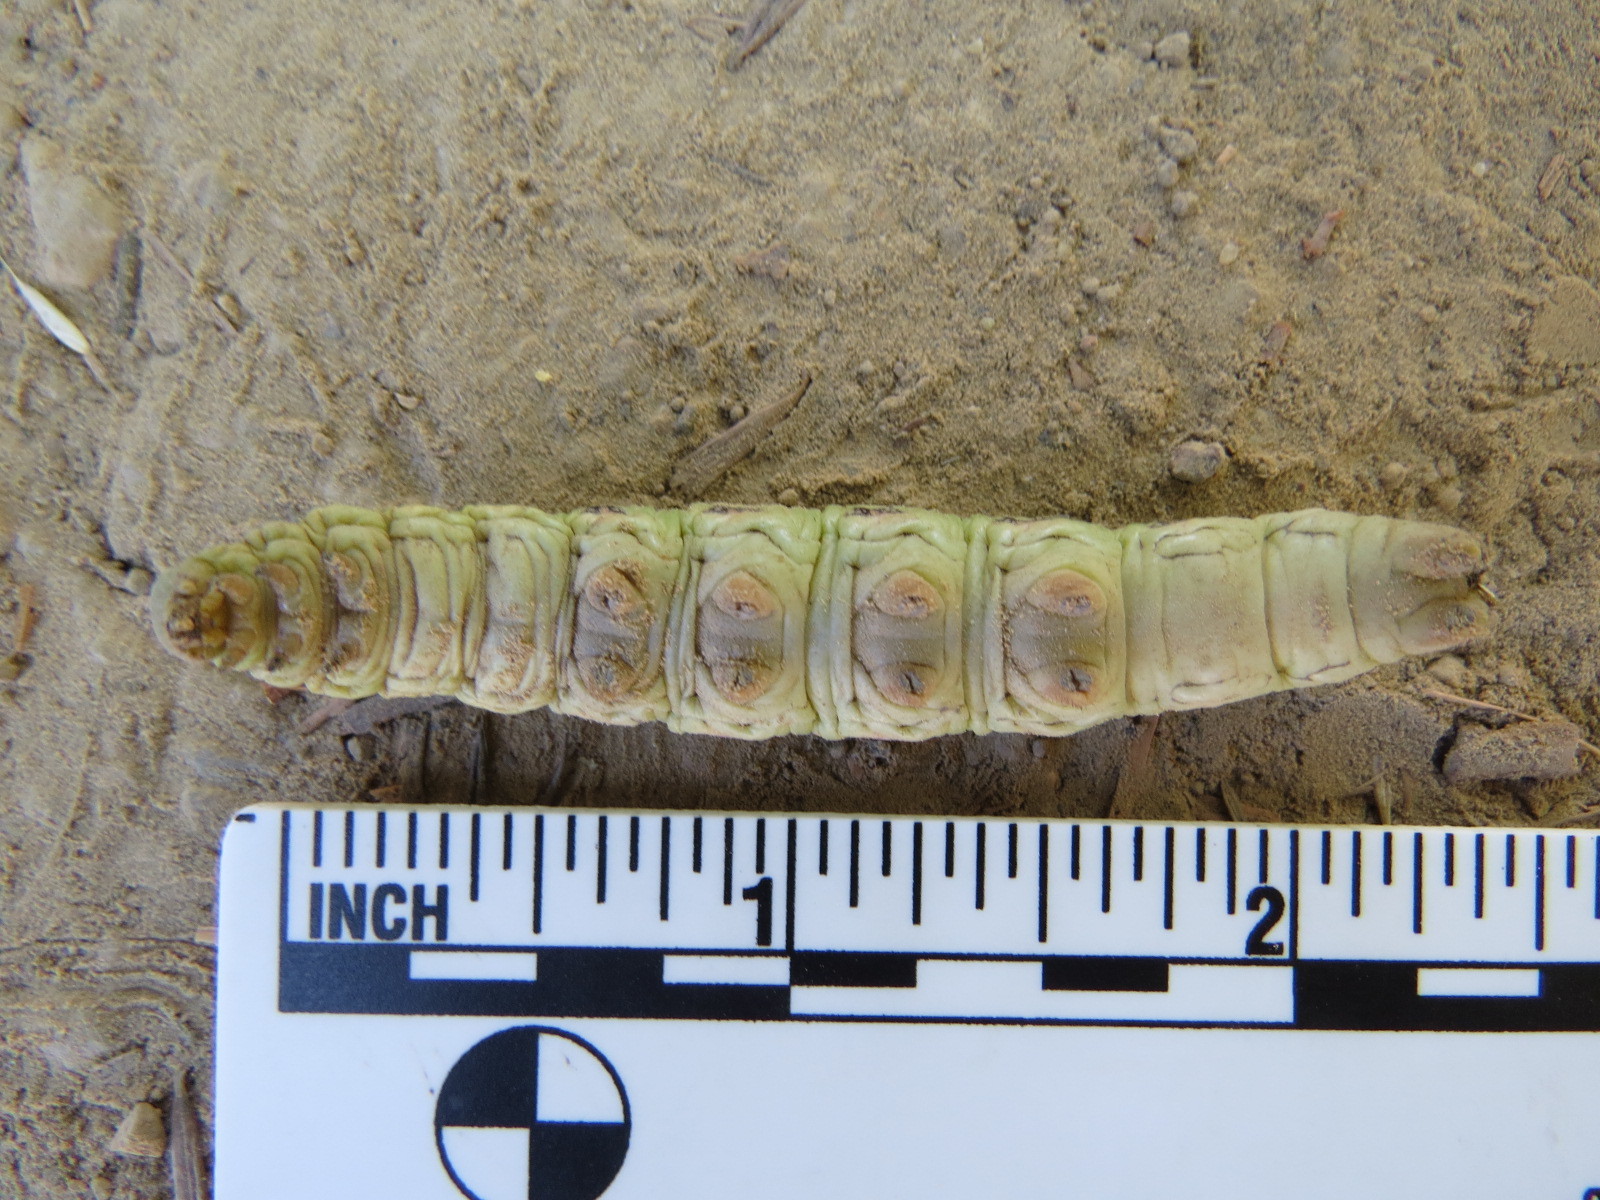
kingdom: Animalia
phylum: Arthropoda
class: Insecta
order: Lepidoptera
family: Sphingidae
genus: Hyles
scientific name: Hyles lineata
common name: White-lined sphinx
